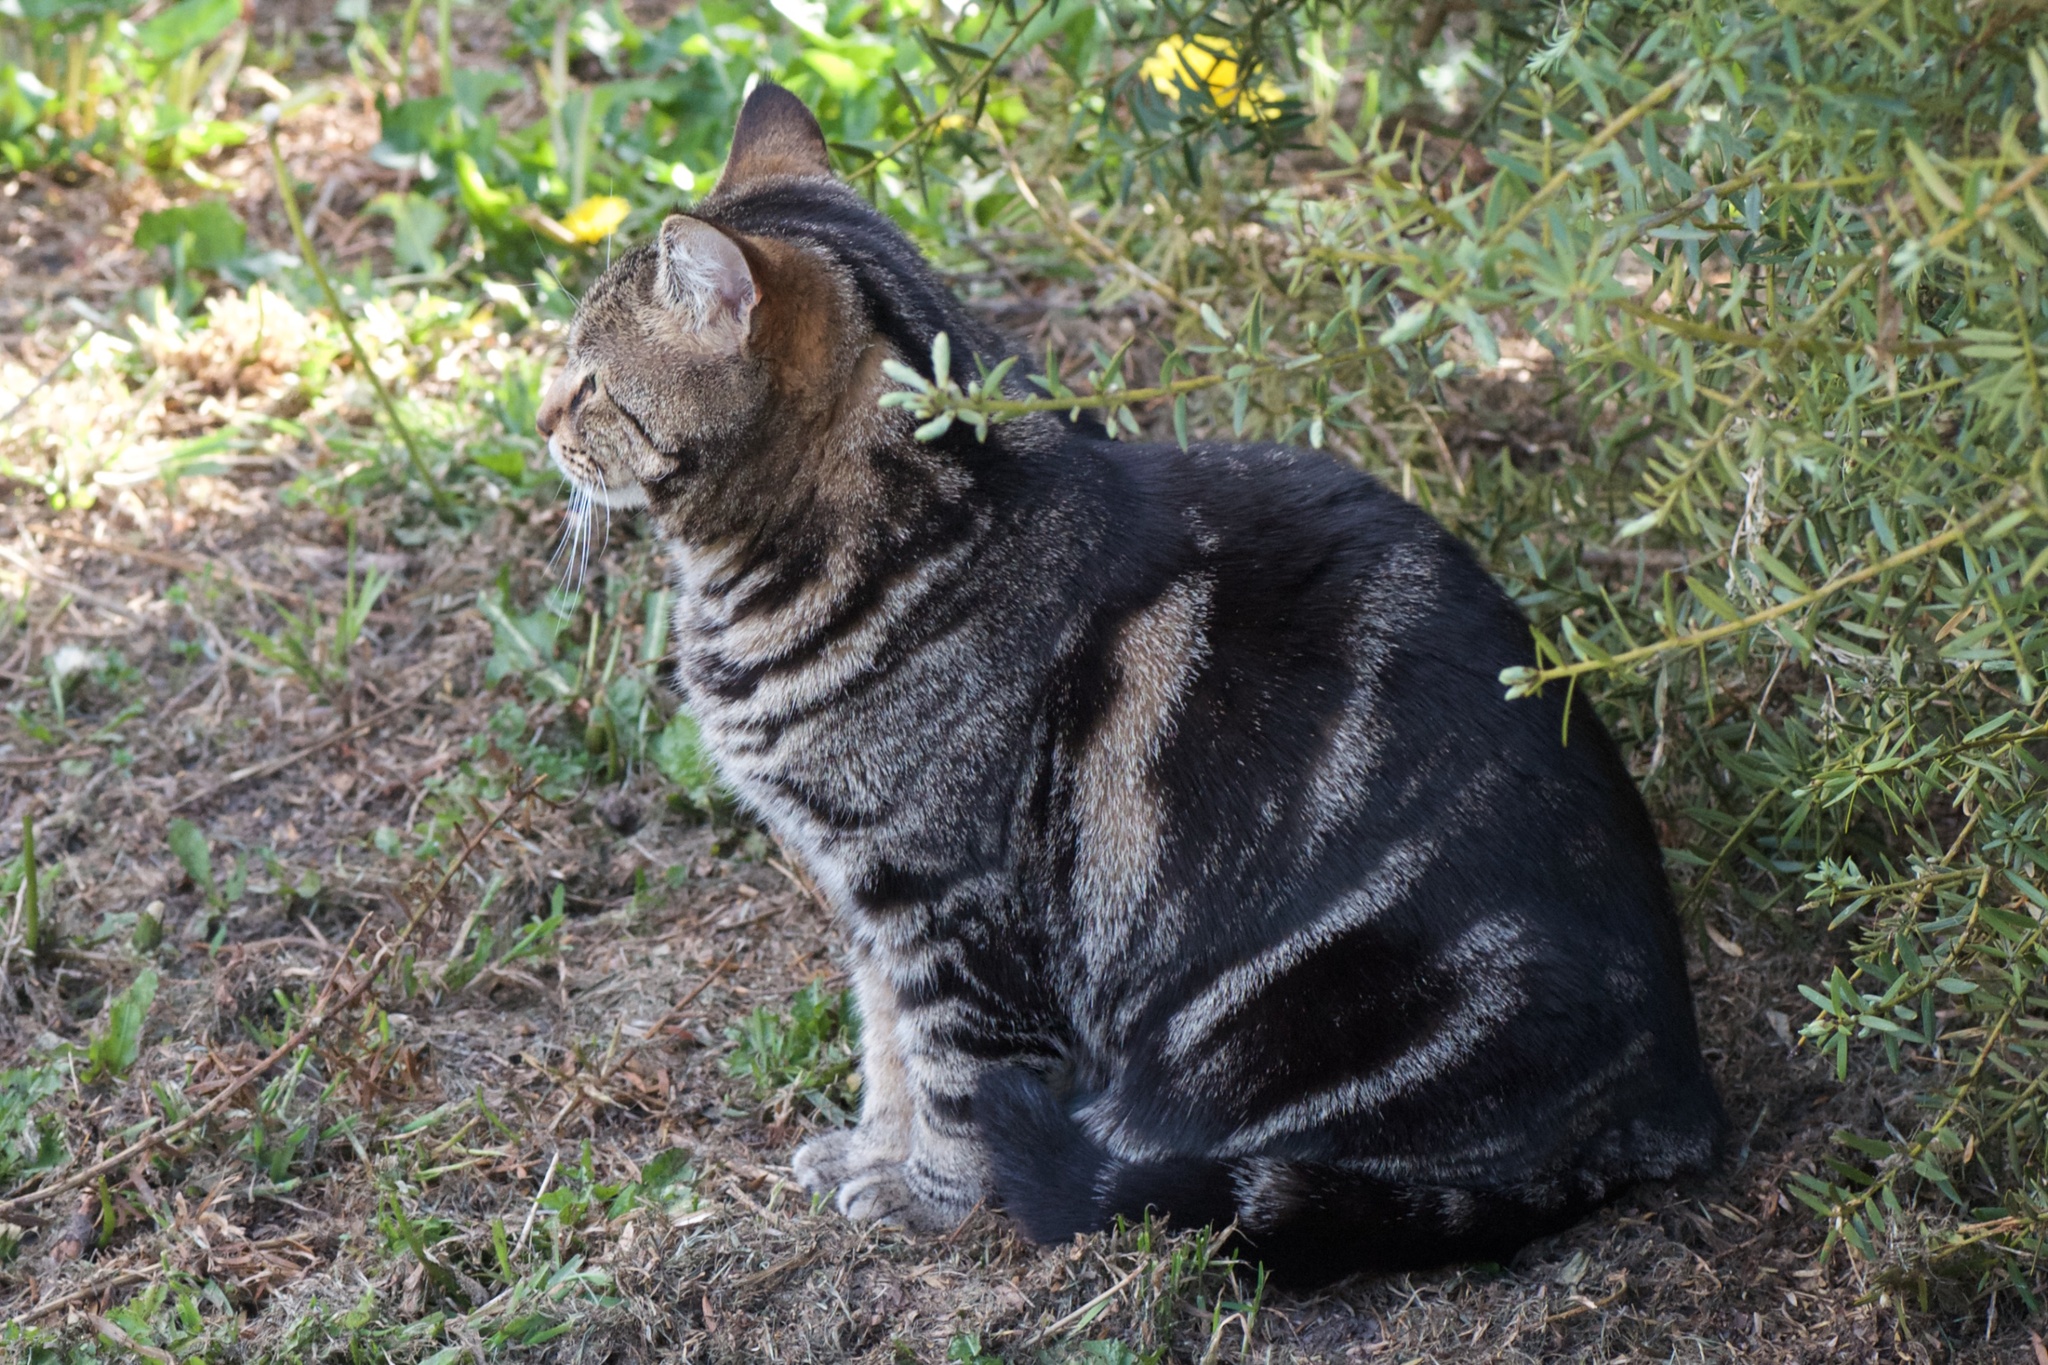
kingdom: Animalia
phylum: Chordata
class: Mammalia
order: Carnivora
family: Felidae
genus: Felis
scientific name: Felis catus
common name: Domestic cat
